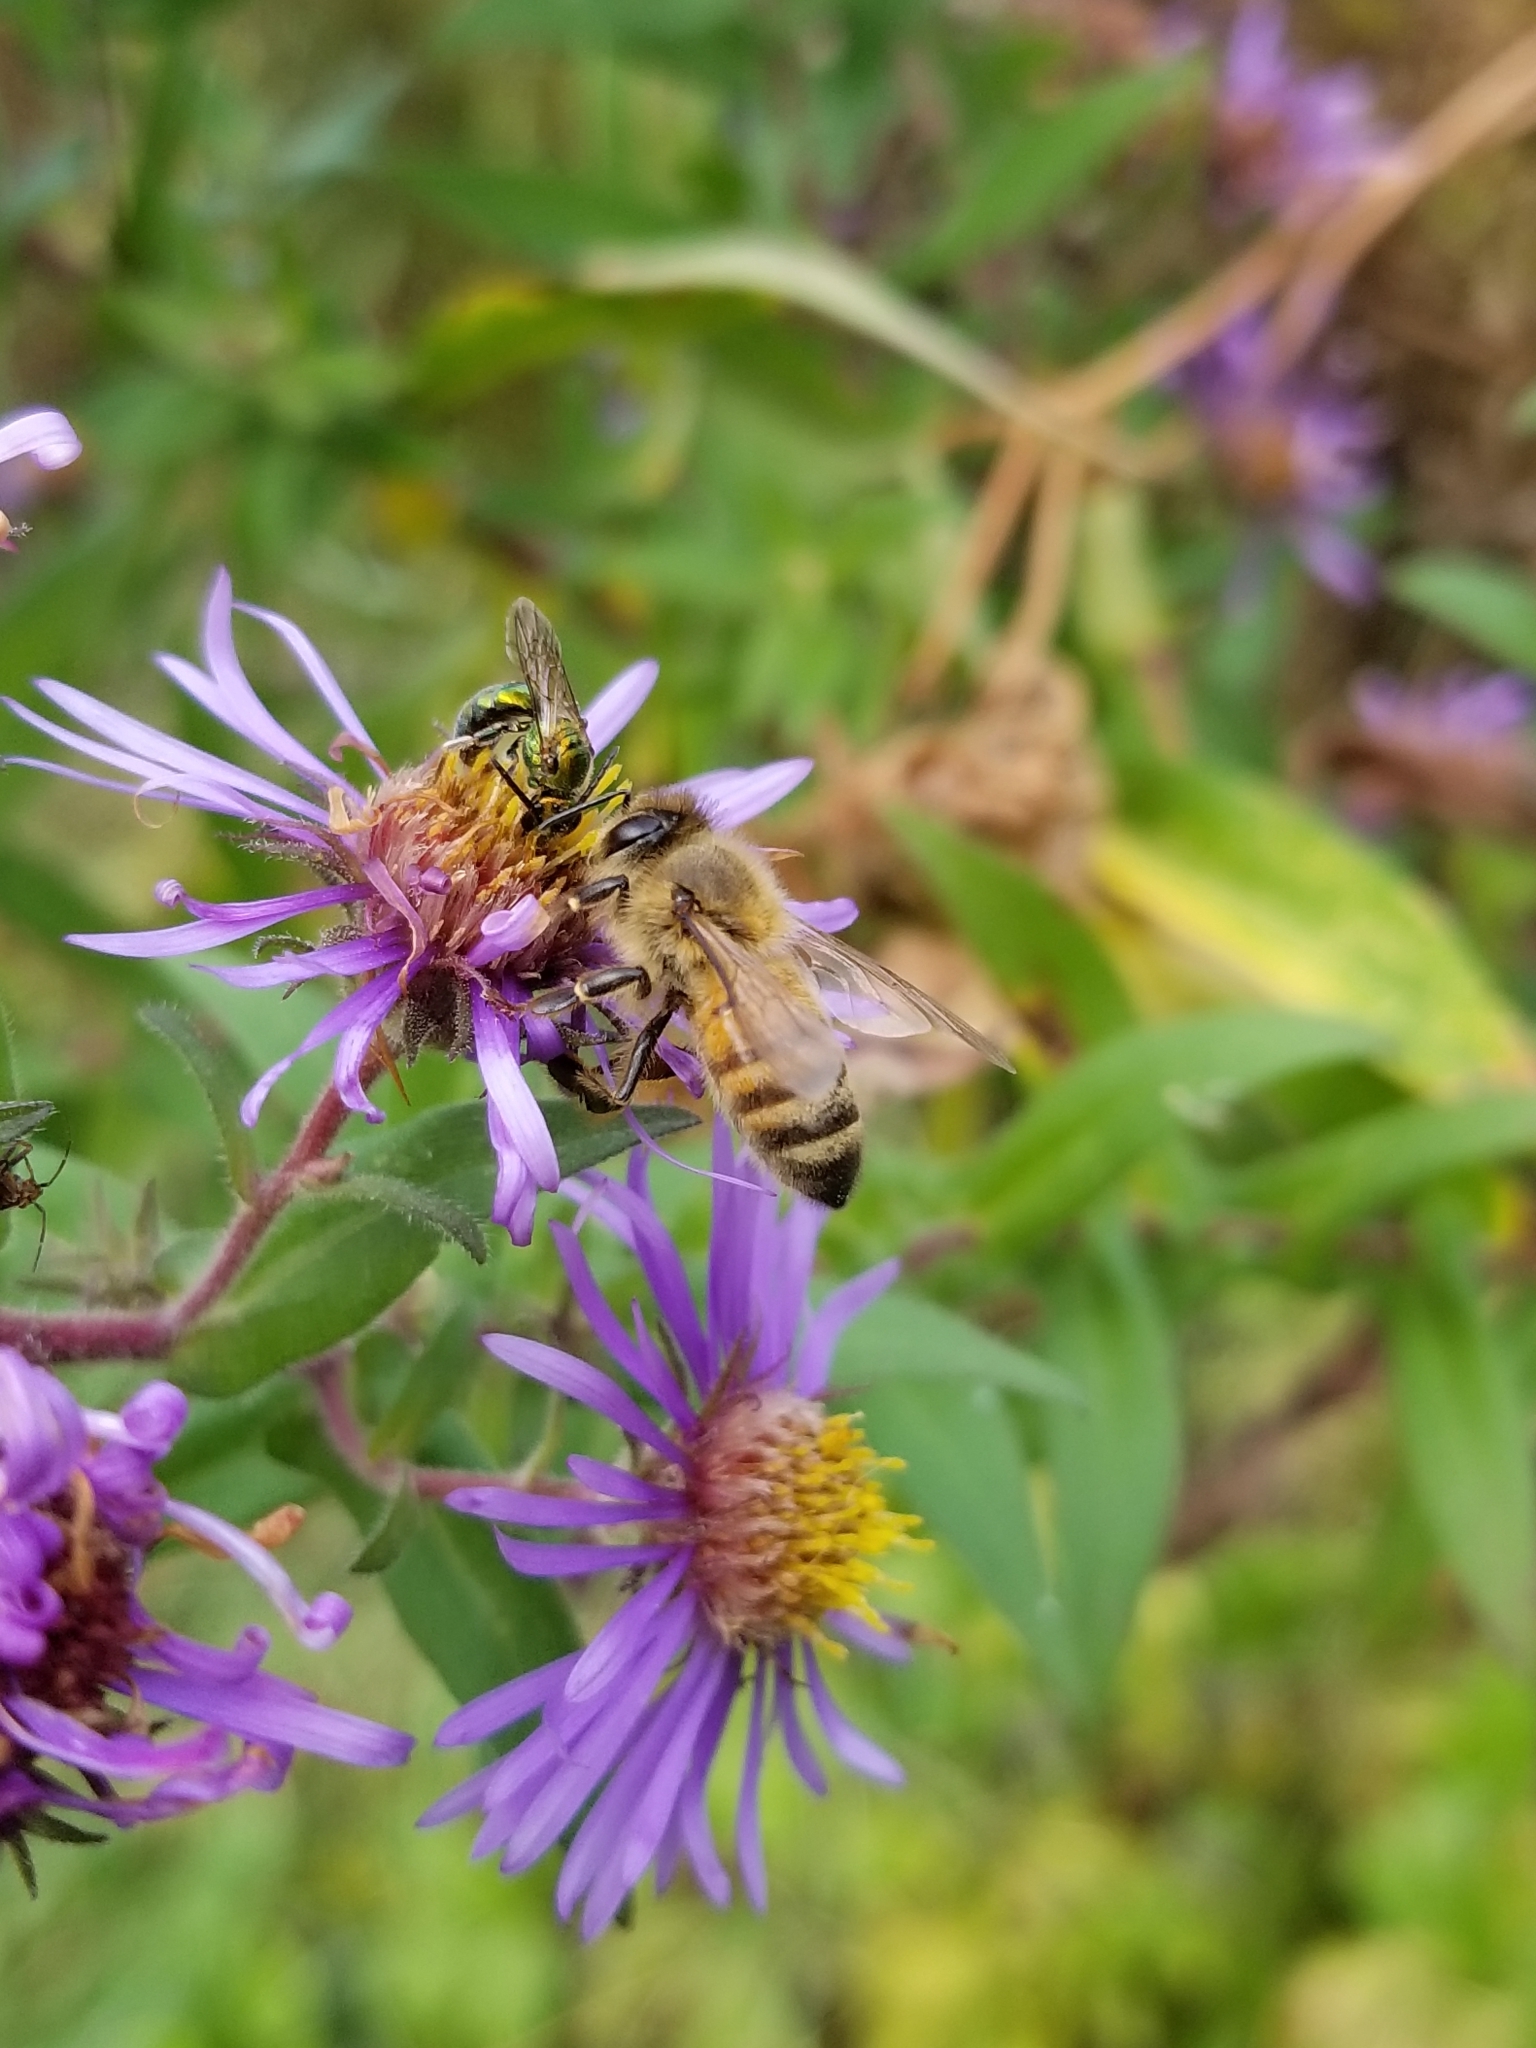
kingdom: Animalia
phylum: Arthropoda
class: Insecta
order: Hymenoptera
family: Apidae
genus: Apis
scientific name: Apis mellifera
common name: Honey bee
